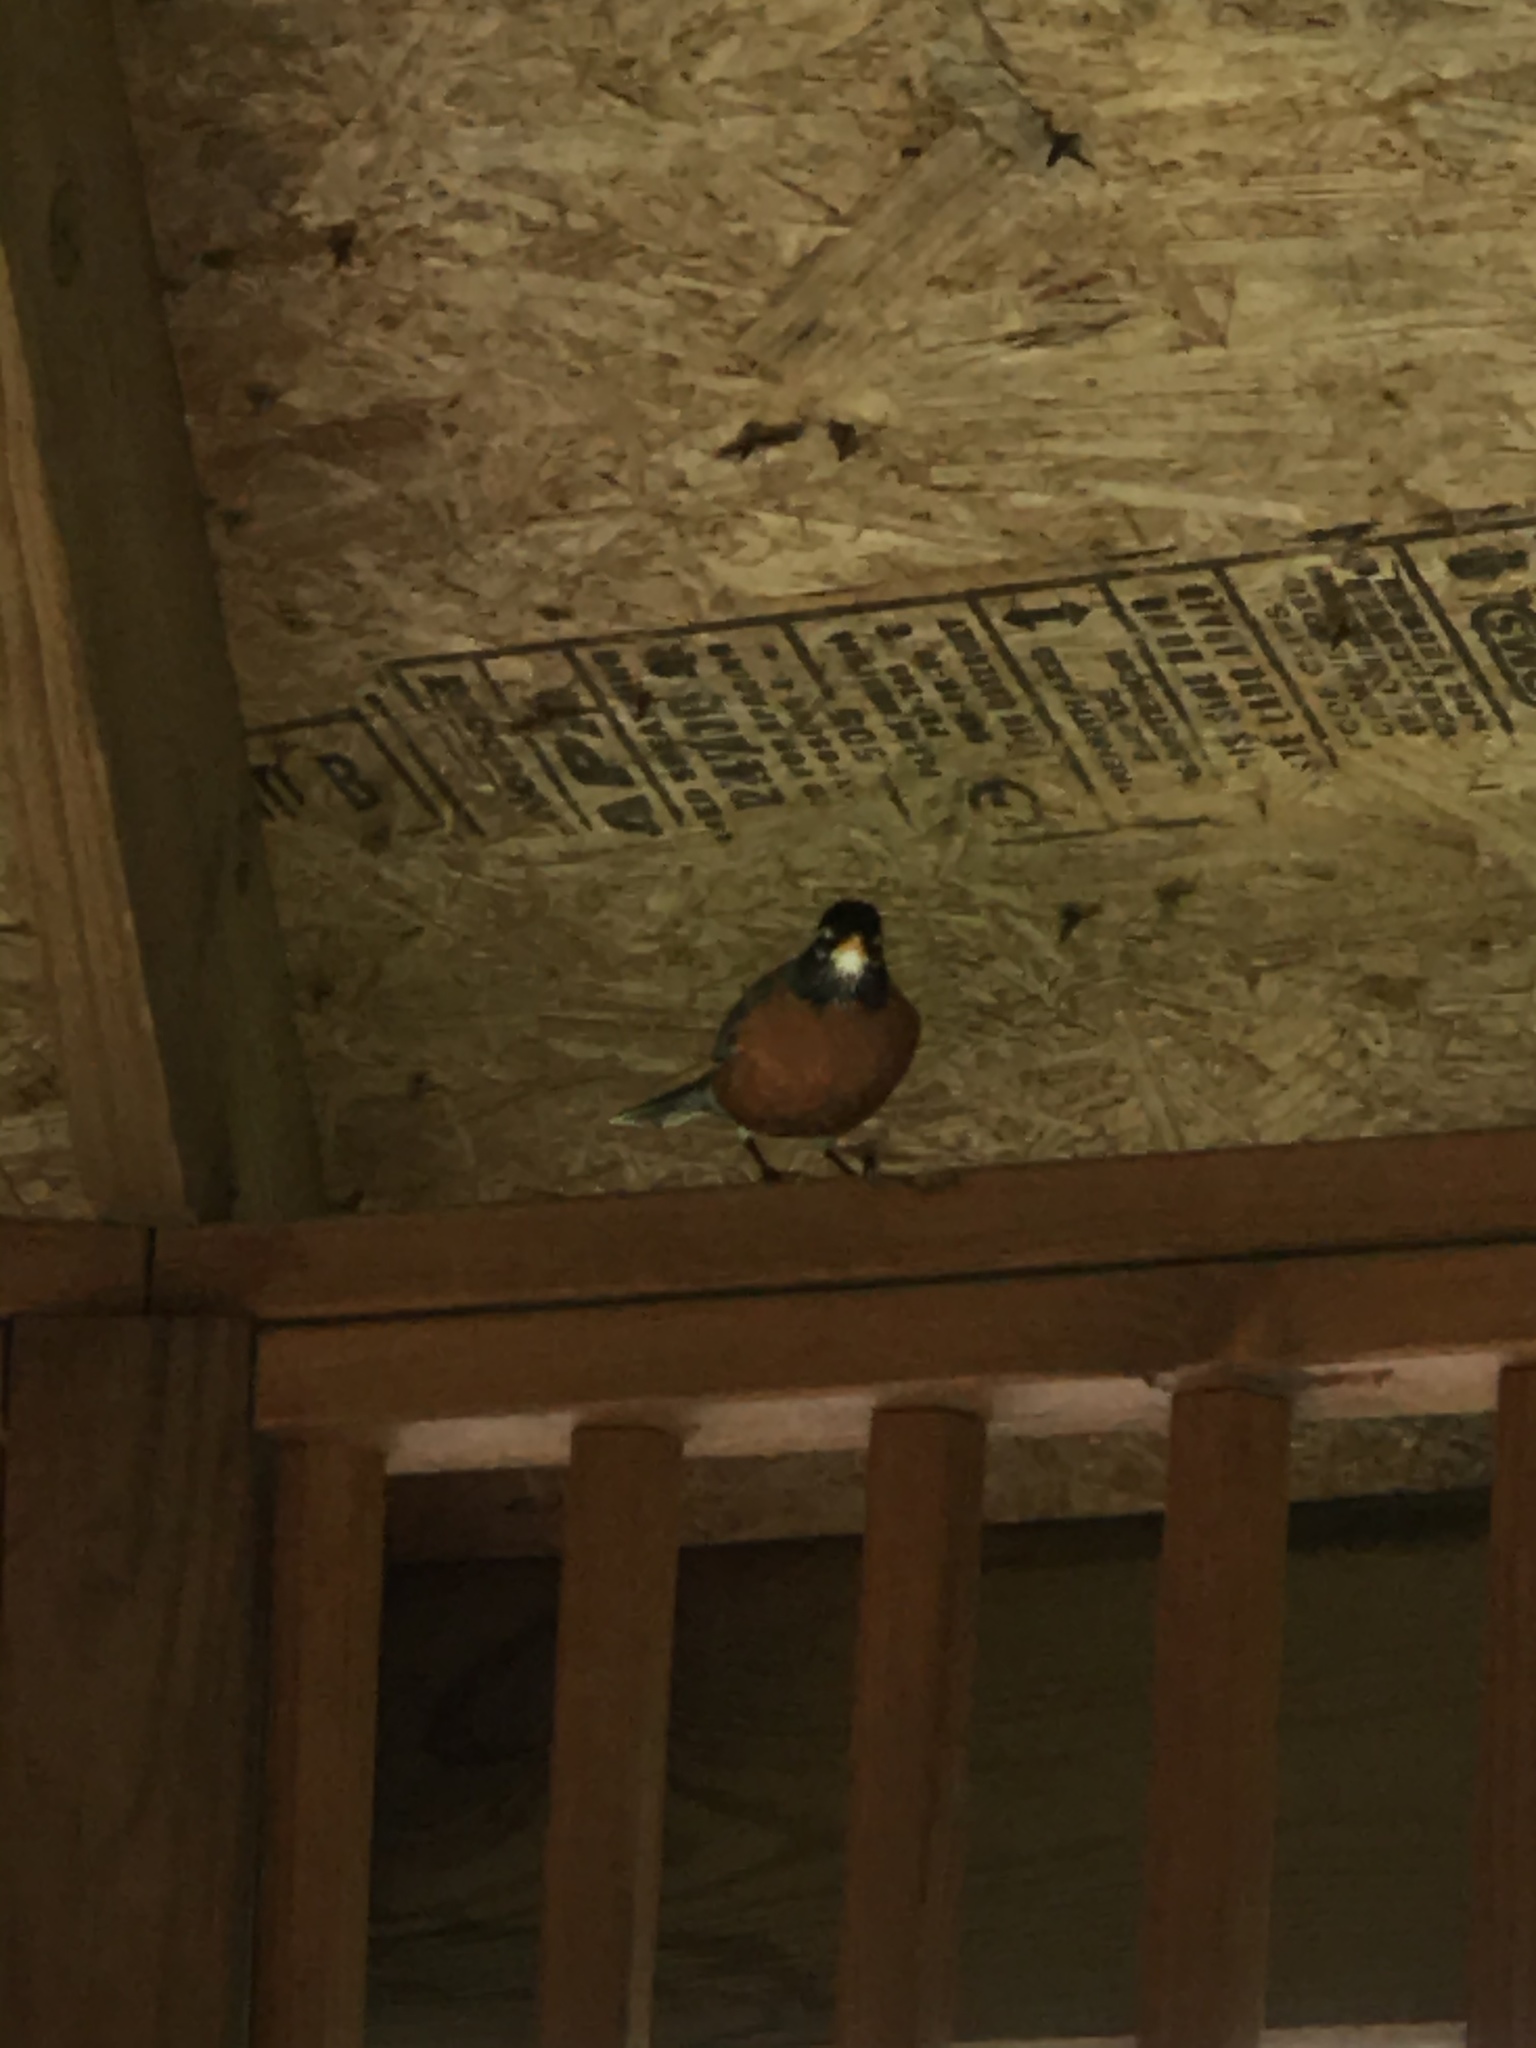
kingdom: Animalia
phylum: Chordata
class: Aves
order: Passeriformes
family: Turdidae
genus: Turdus
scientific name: Turdus migratorius
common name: American robin
